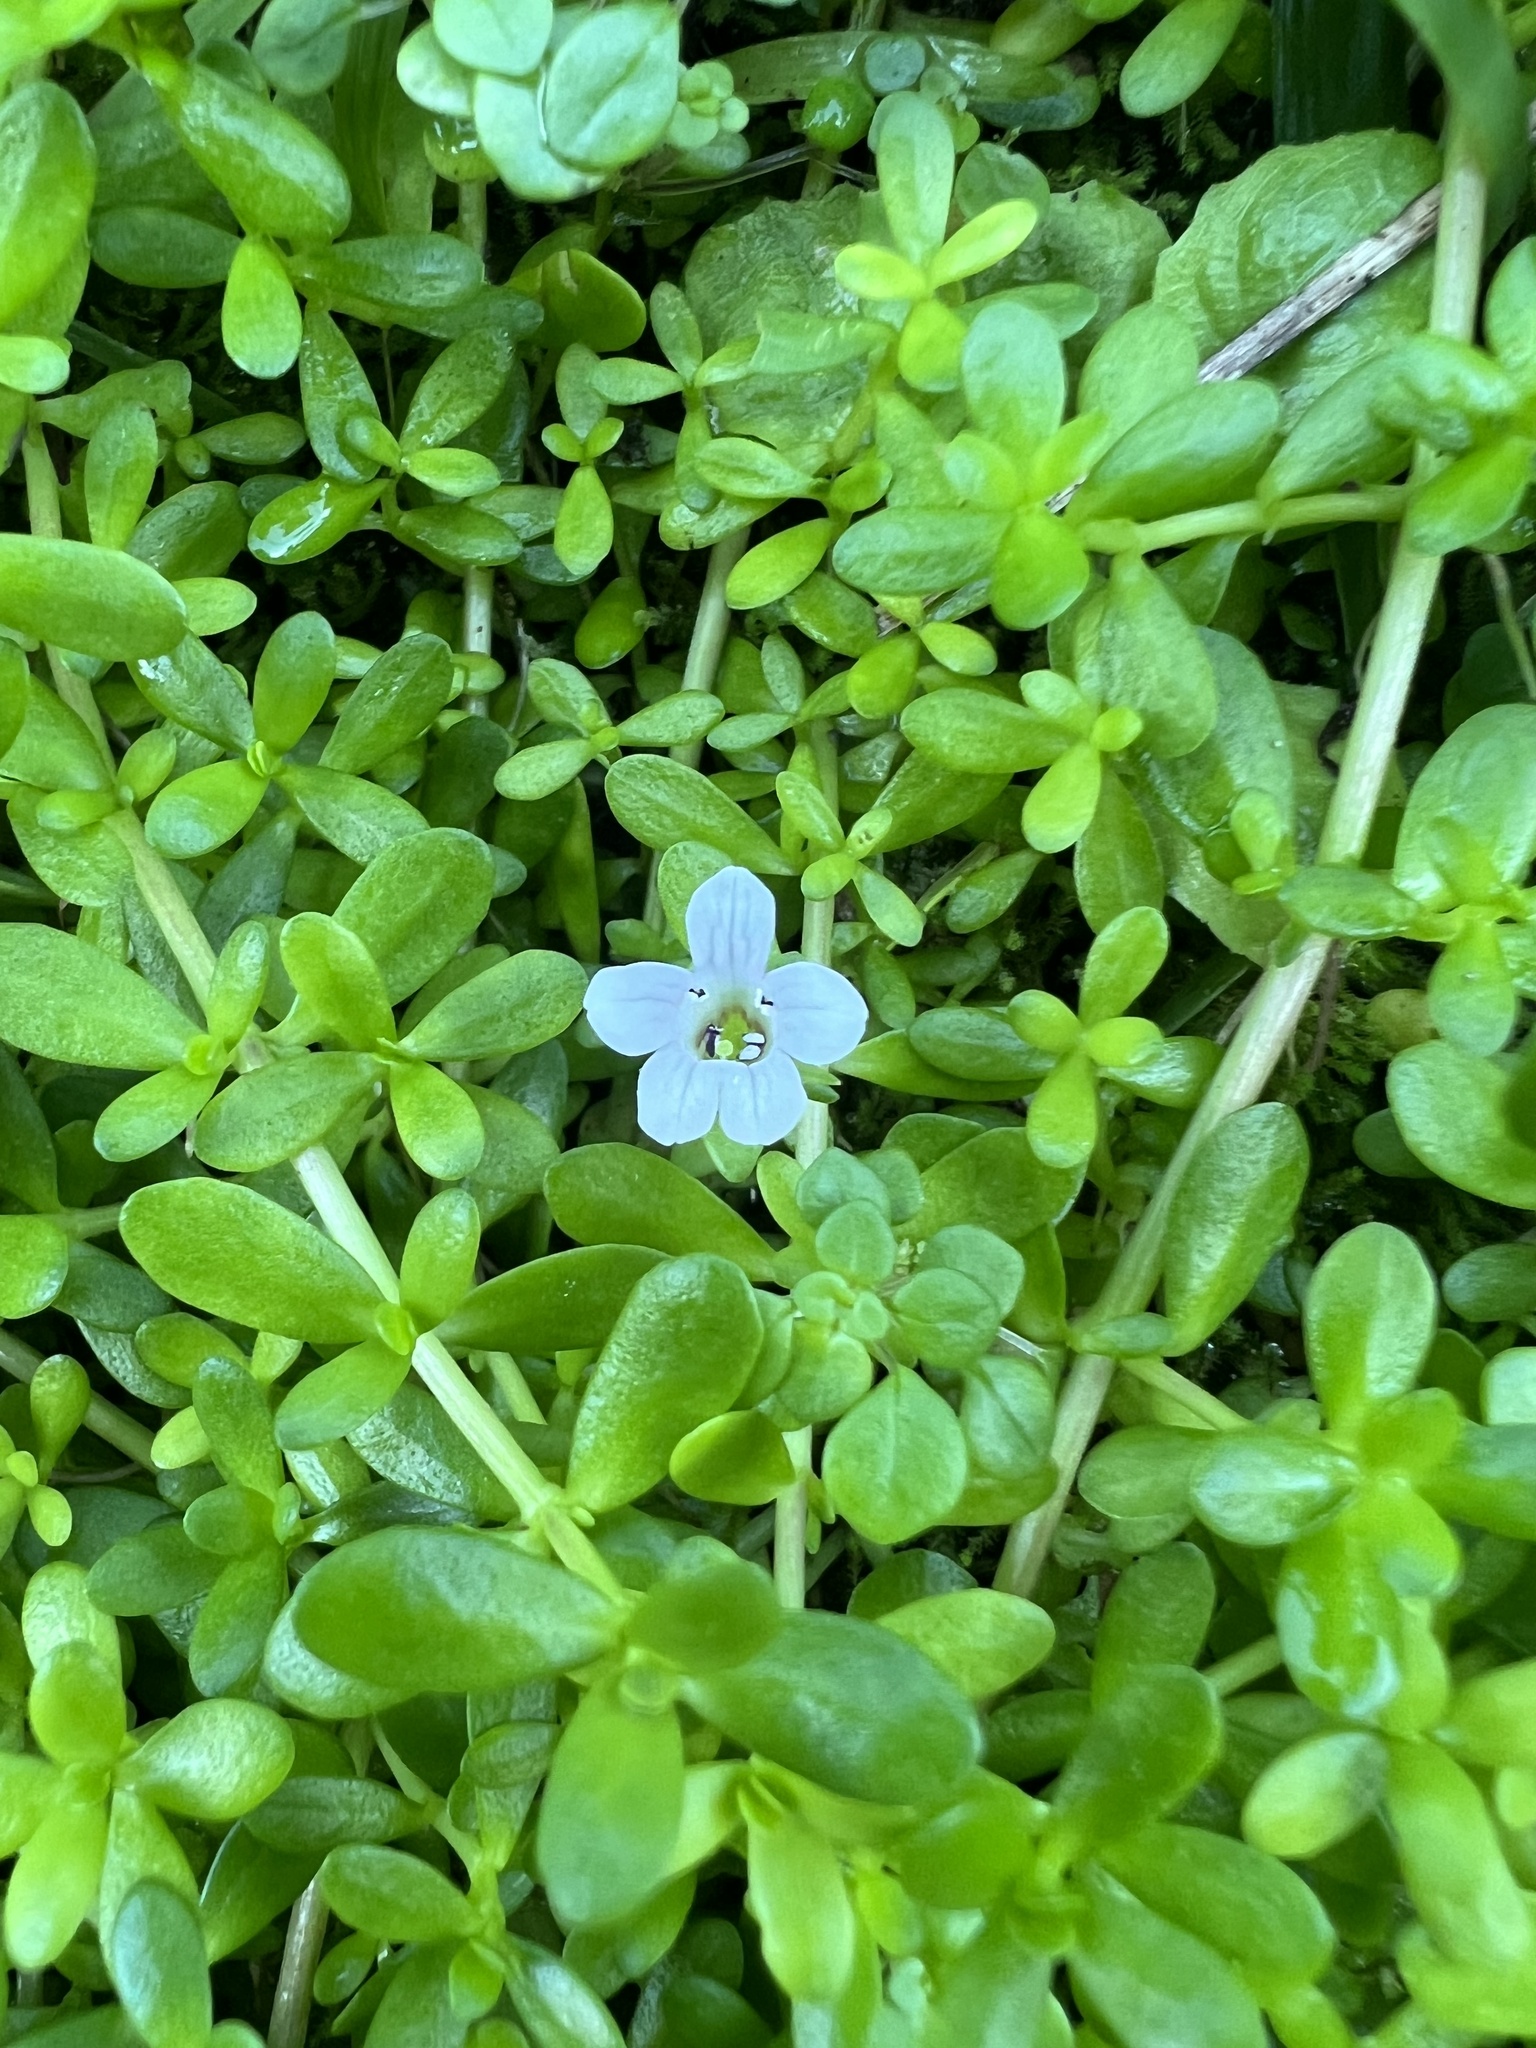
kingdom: Plantae
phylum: Tracheophyta
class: Magnoliopsida
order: Lamiales
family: Plantaginaceae
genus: Bacopa
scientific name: Bacopa monnieri
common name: Indian-pennywort
